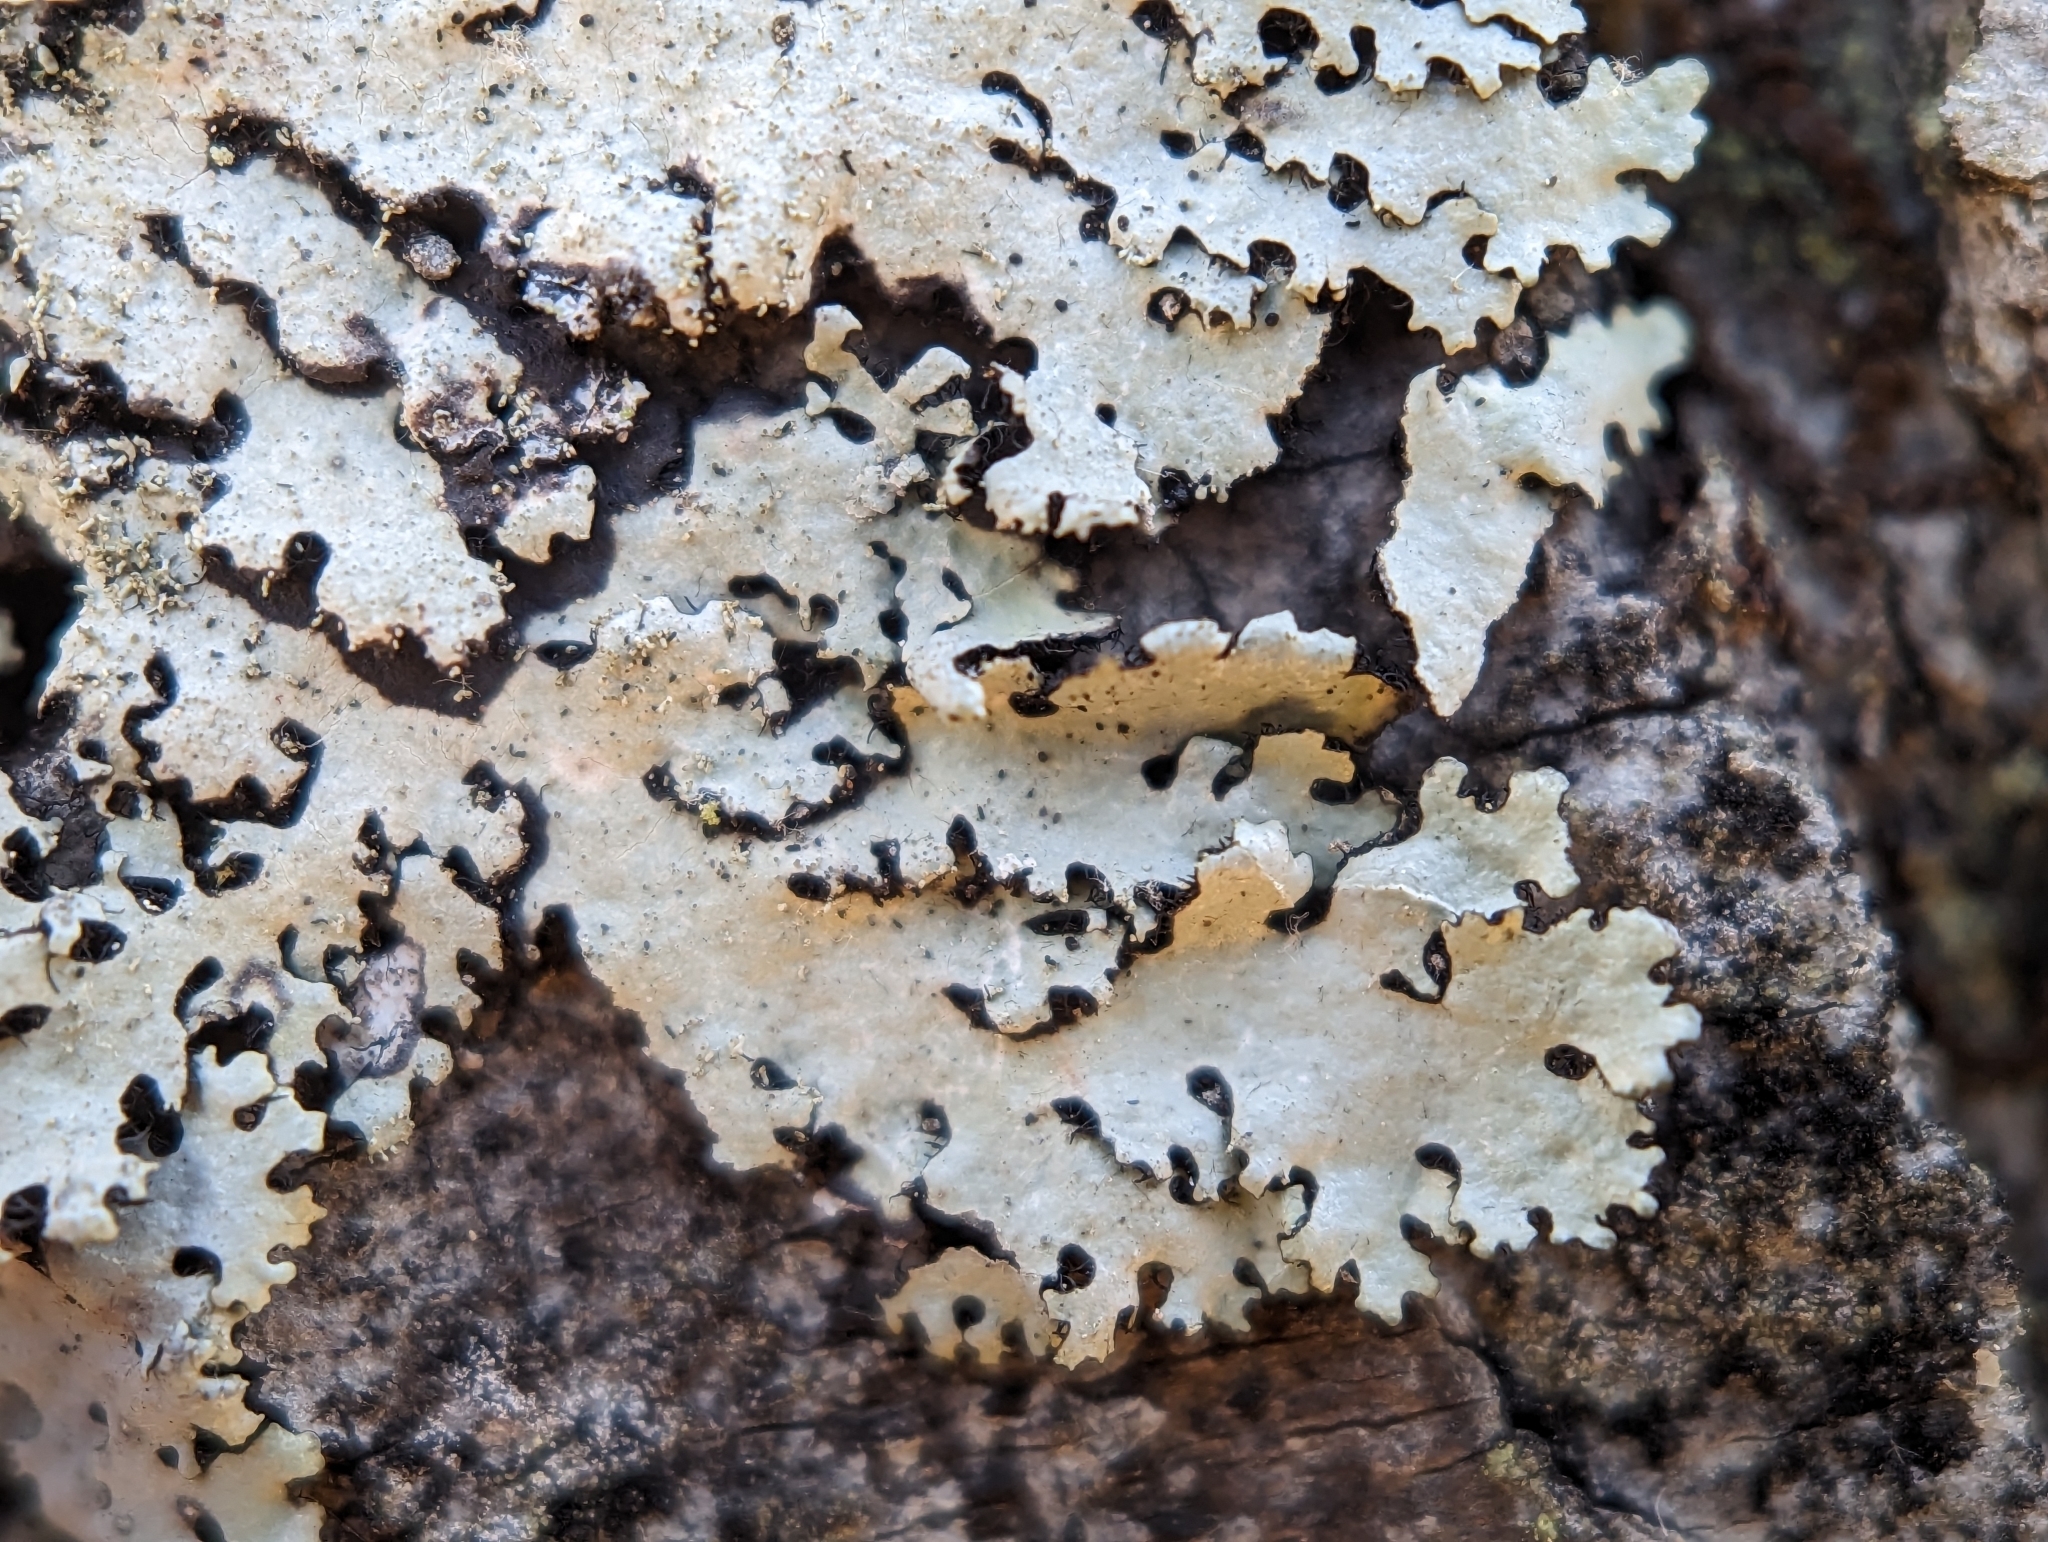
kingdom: Fungi
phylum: Ascomycota
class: Lecanoromycetes
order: Lecanorales
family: Parmeliaceae
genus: Hypotrachyna
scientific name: Hypotrachyna minarum
